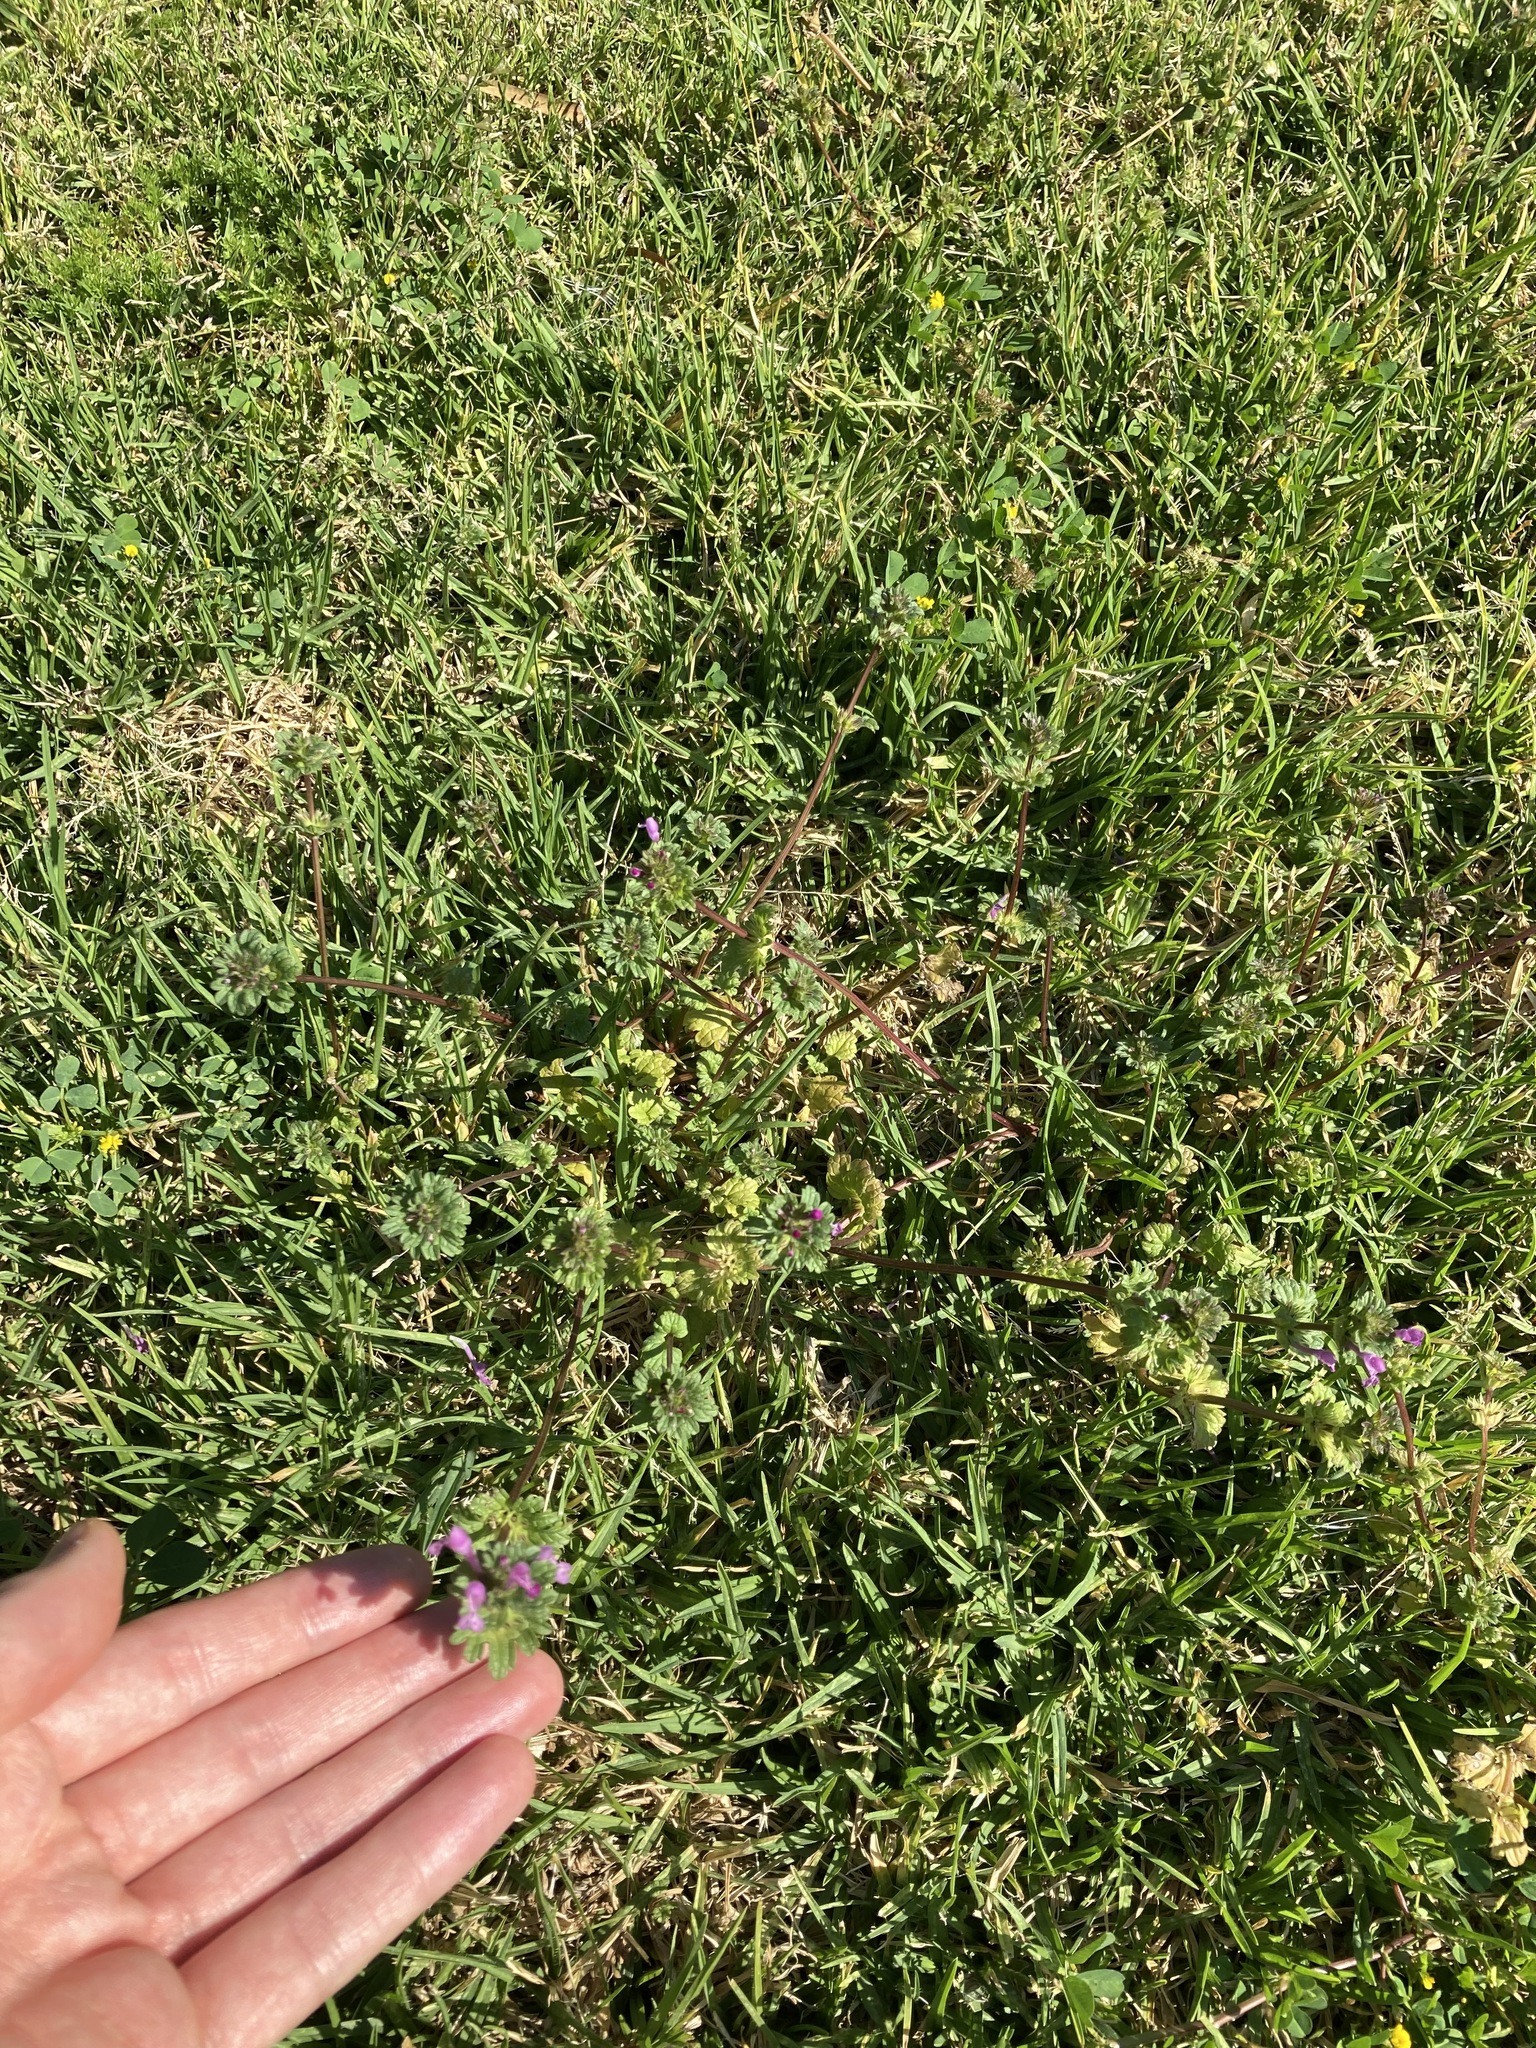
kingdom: Plantae
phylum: Tracheophyta
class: Magnoliopsida
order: Lamiales
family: Lamiaceae
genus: Lamium
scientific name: Lamium amplexicaule
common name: Henbit dead-nettle
